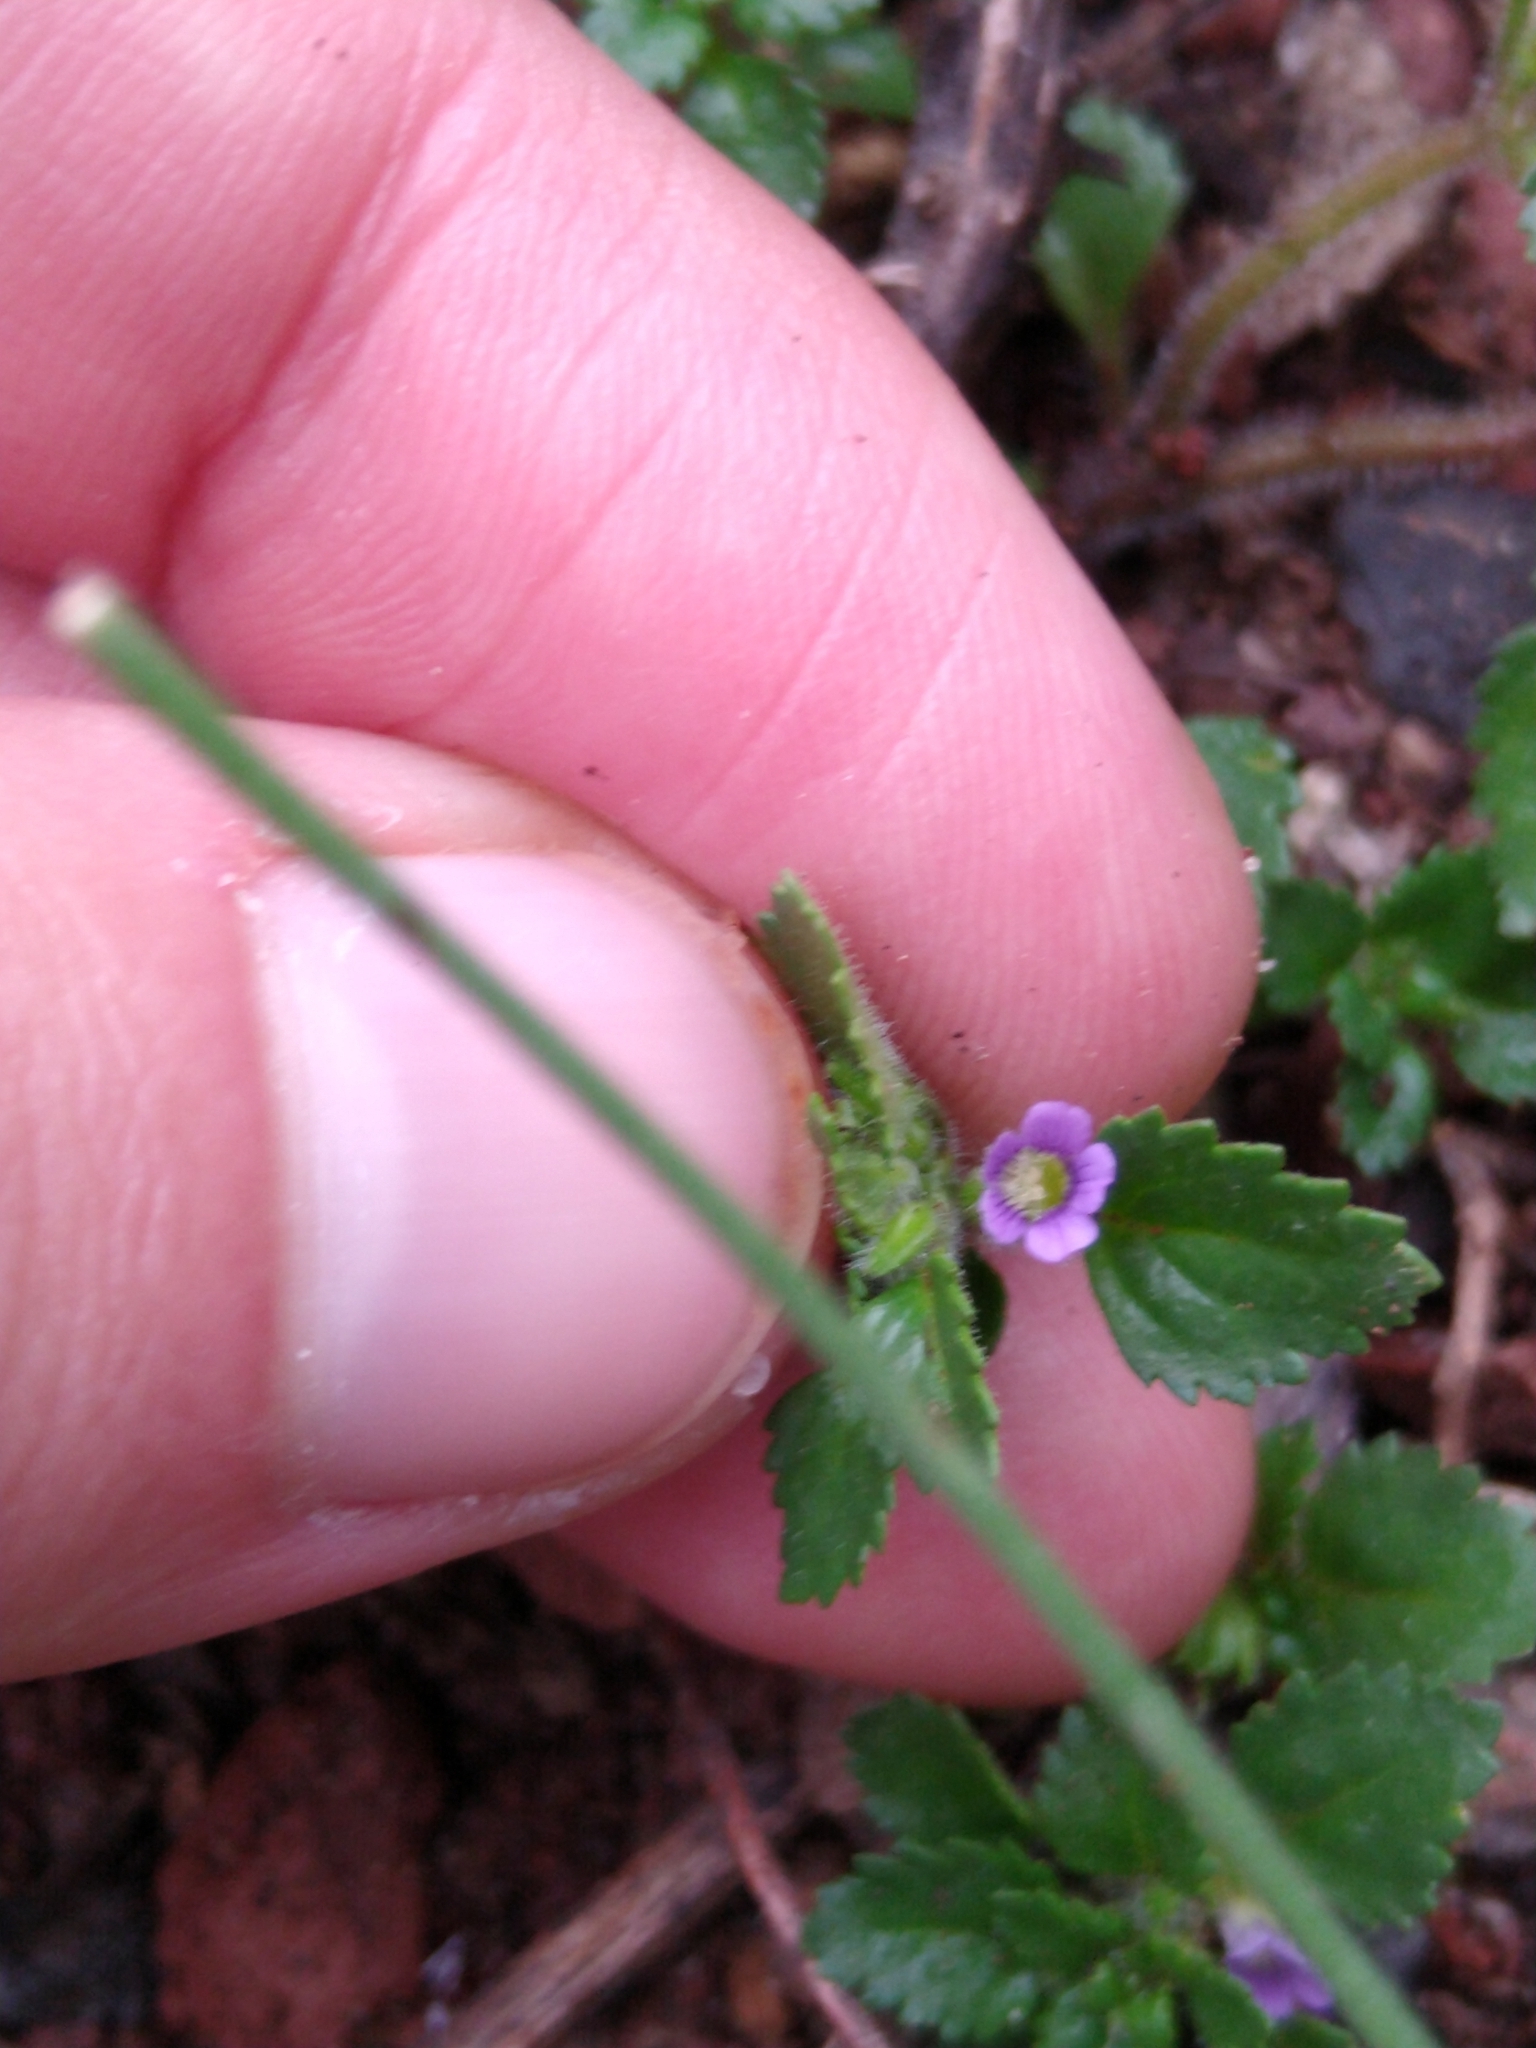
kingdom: Plantae
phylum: Tracheophyta
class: Magnoliopsida
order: Lamiales
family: Plantaginaceae
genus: Stemodia
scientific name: Stemodia verticillata
